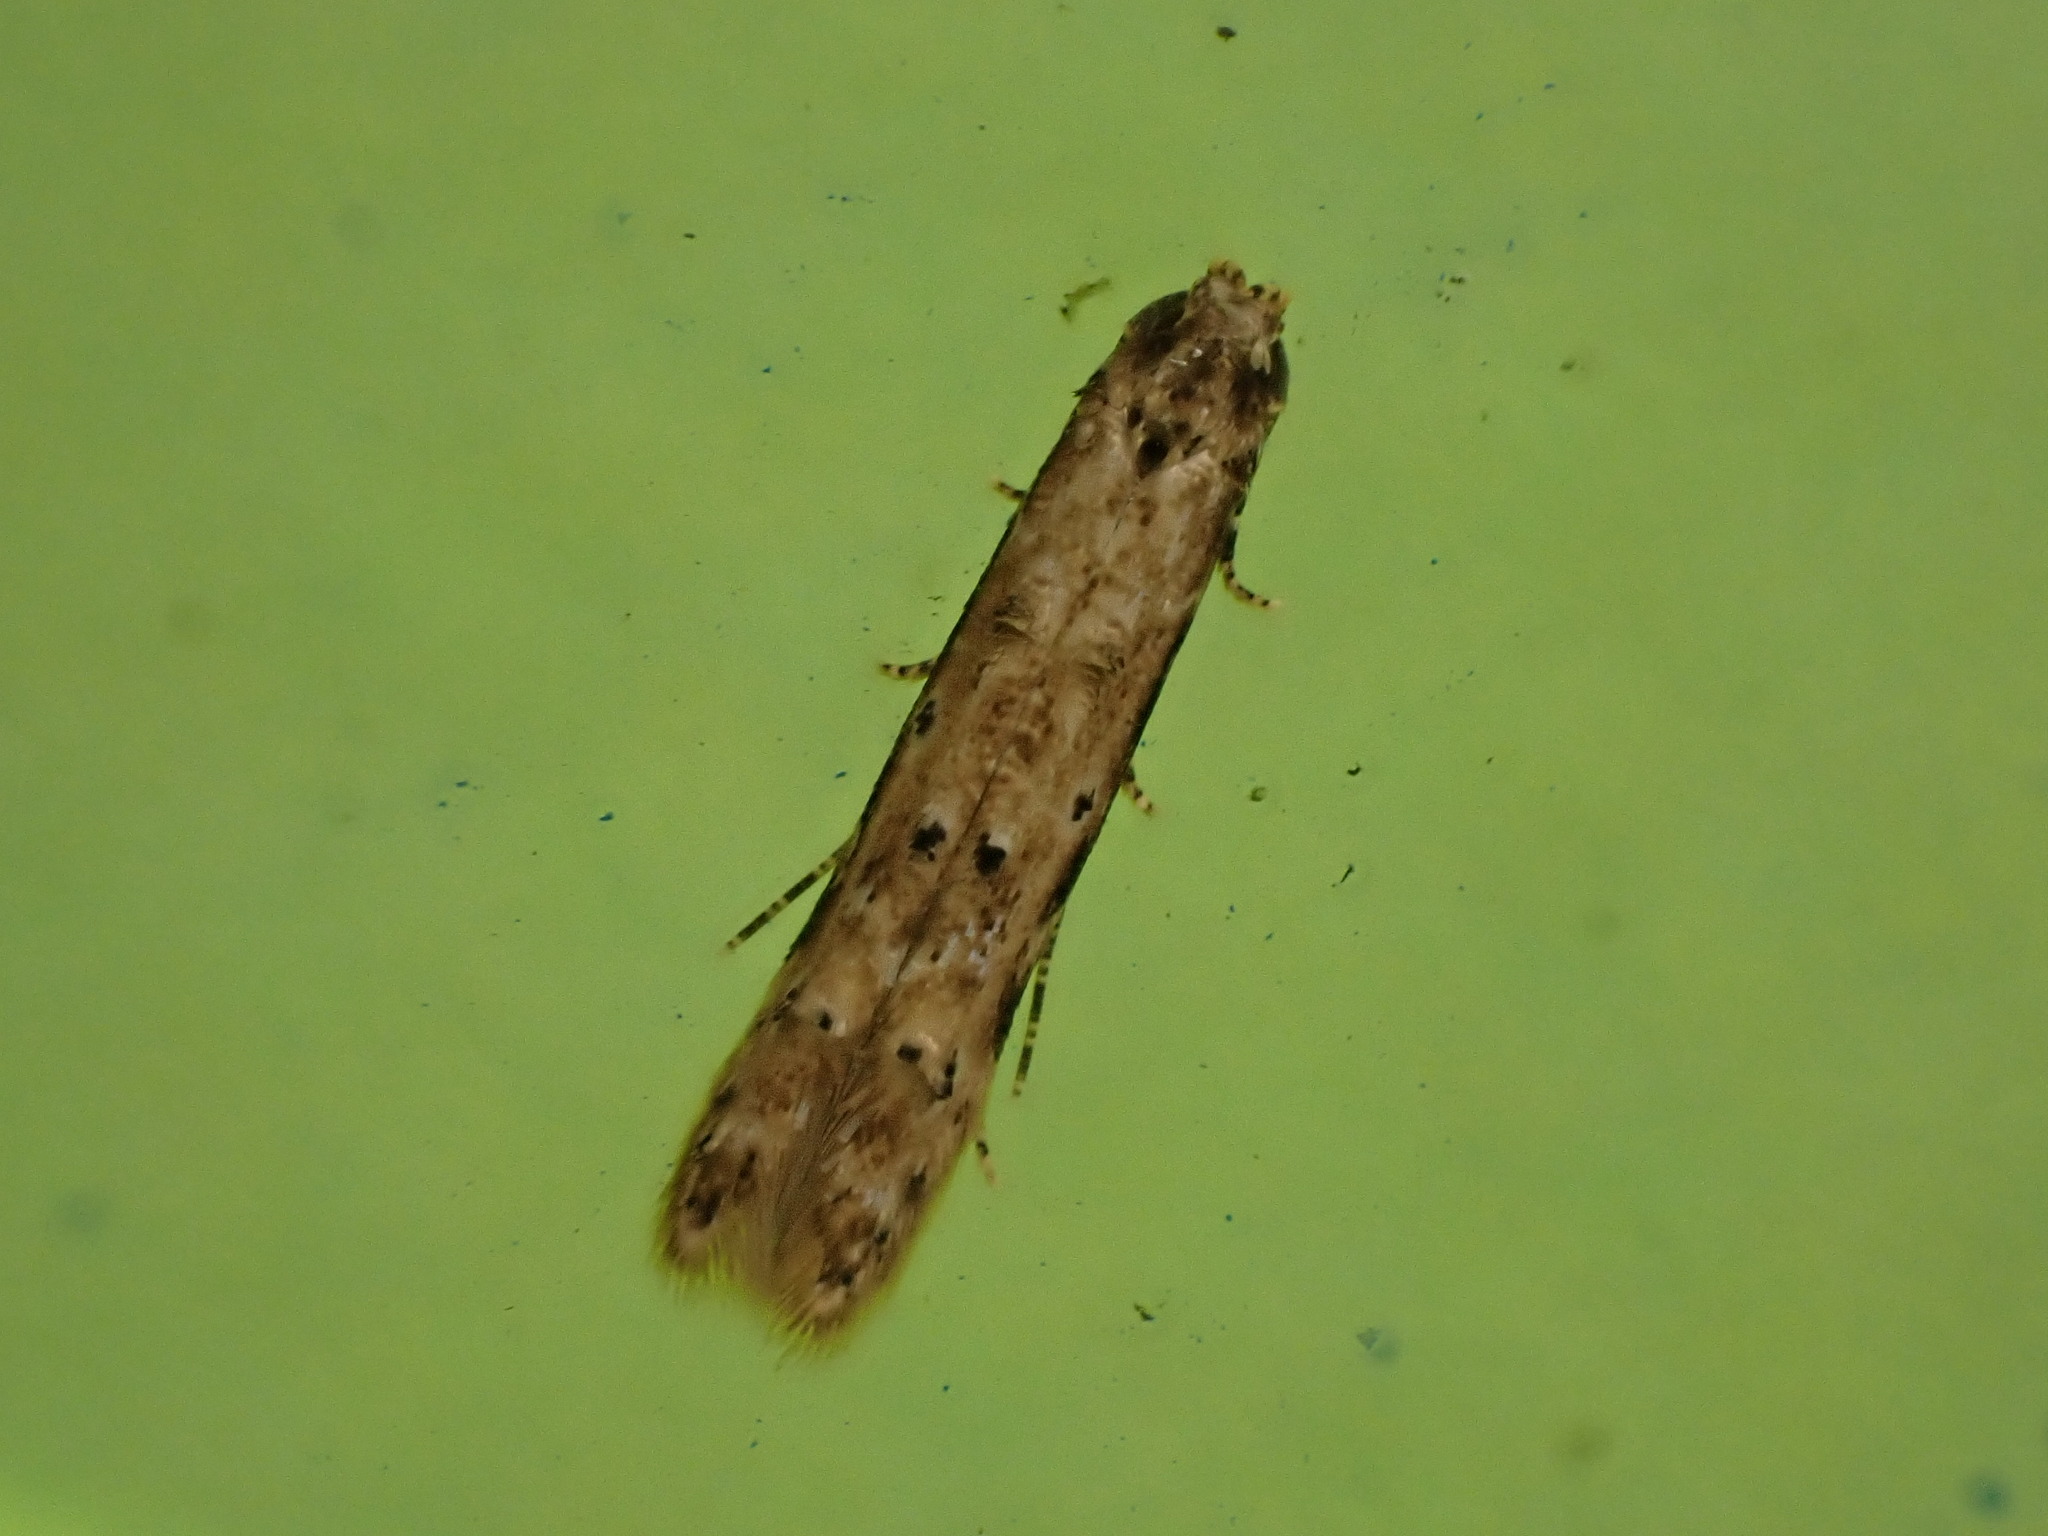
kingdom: Animalia
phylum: Arthropoda
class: Insecta
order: Lepidoptera
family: Elachistidae
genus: Microcolona
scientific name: Microcolona limodes
